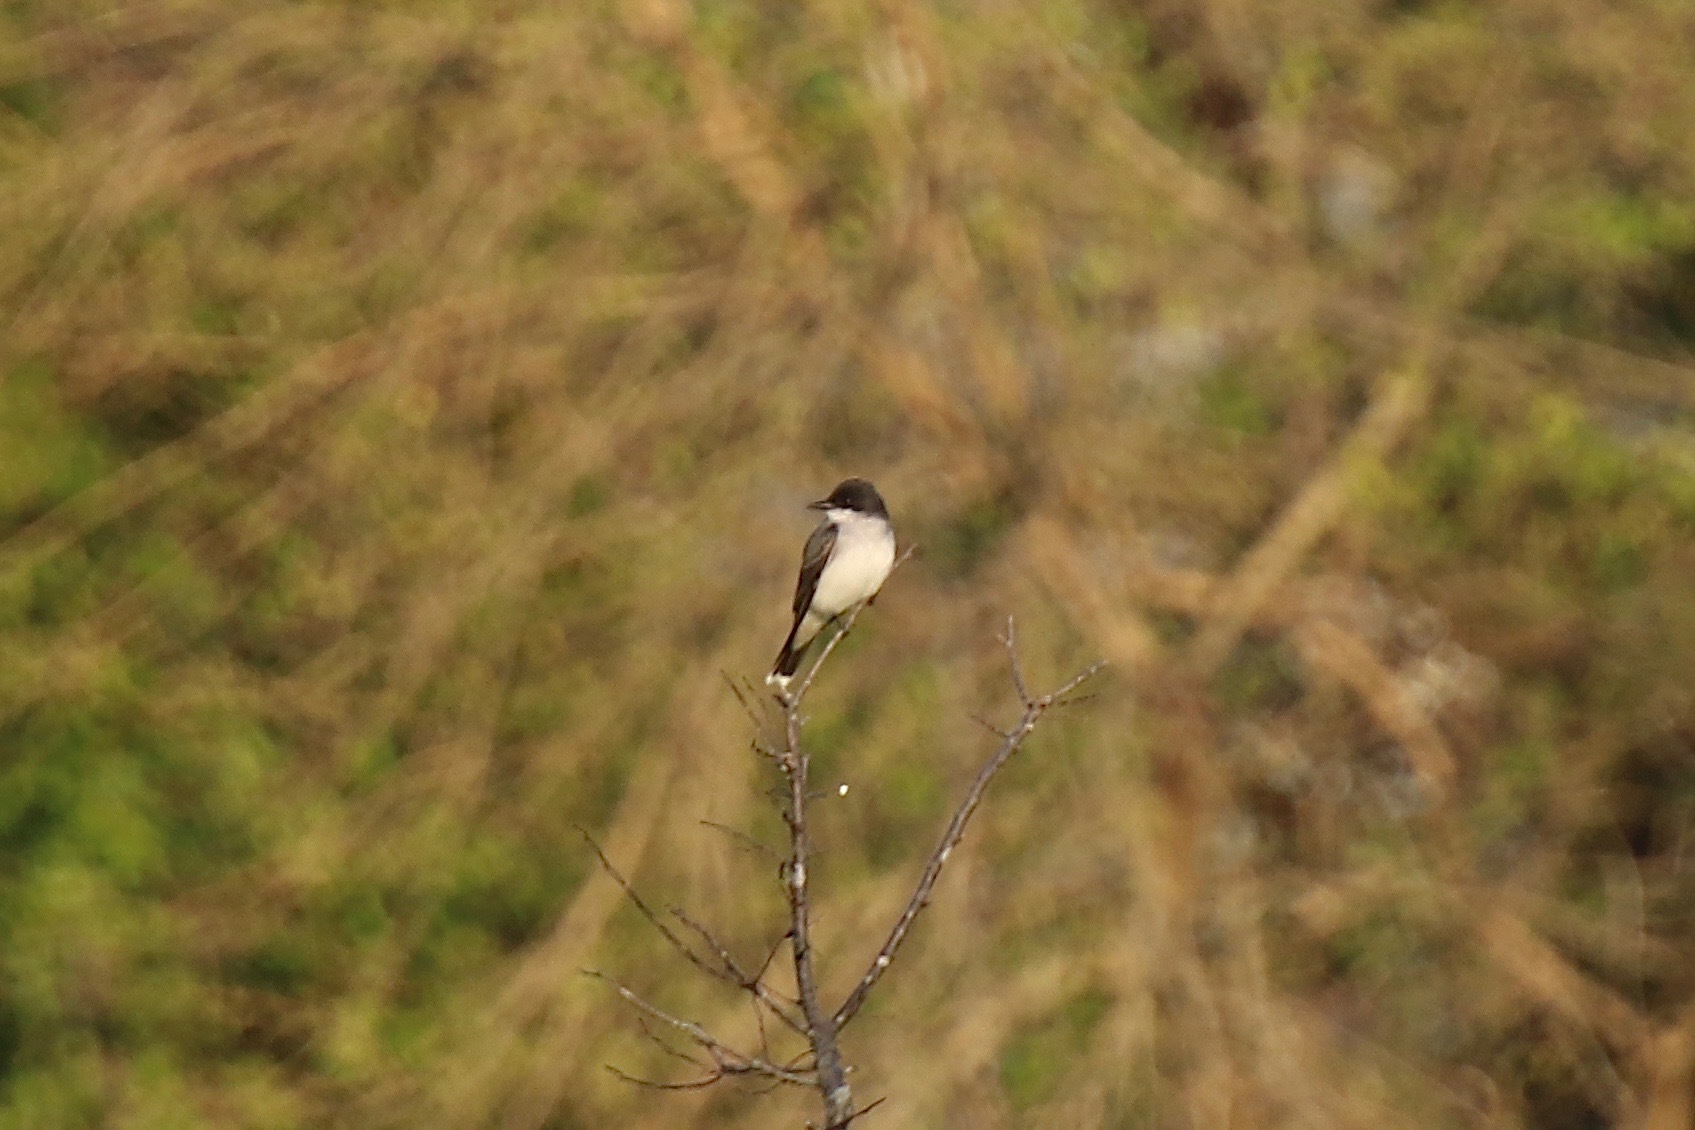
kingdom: Animalia
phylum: Chordata
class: Aves
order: Passeriformes
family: Tyrannidae
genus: Tyrannus
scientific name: Tyrannus tyrannus
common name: Eastern kingbird
